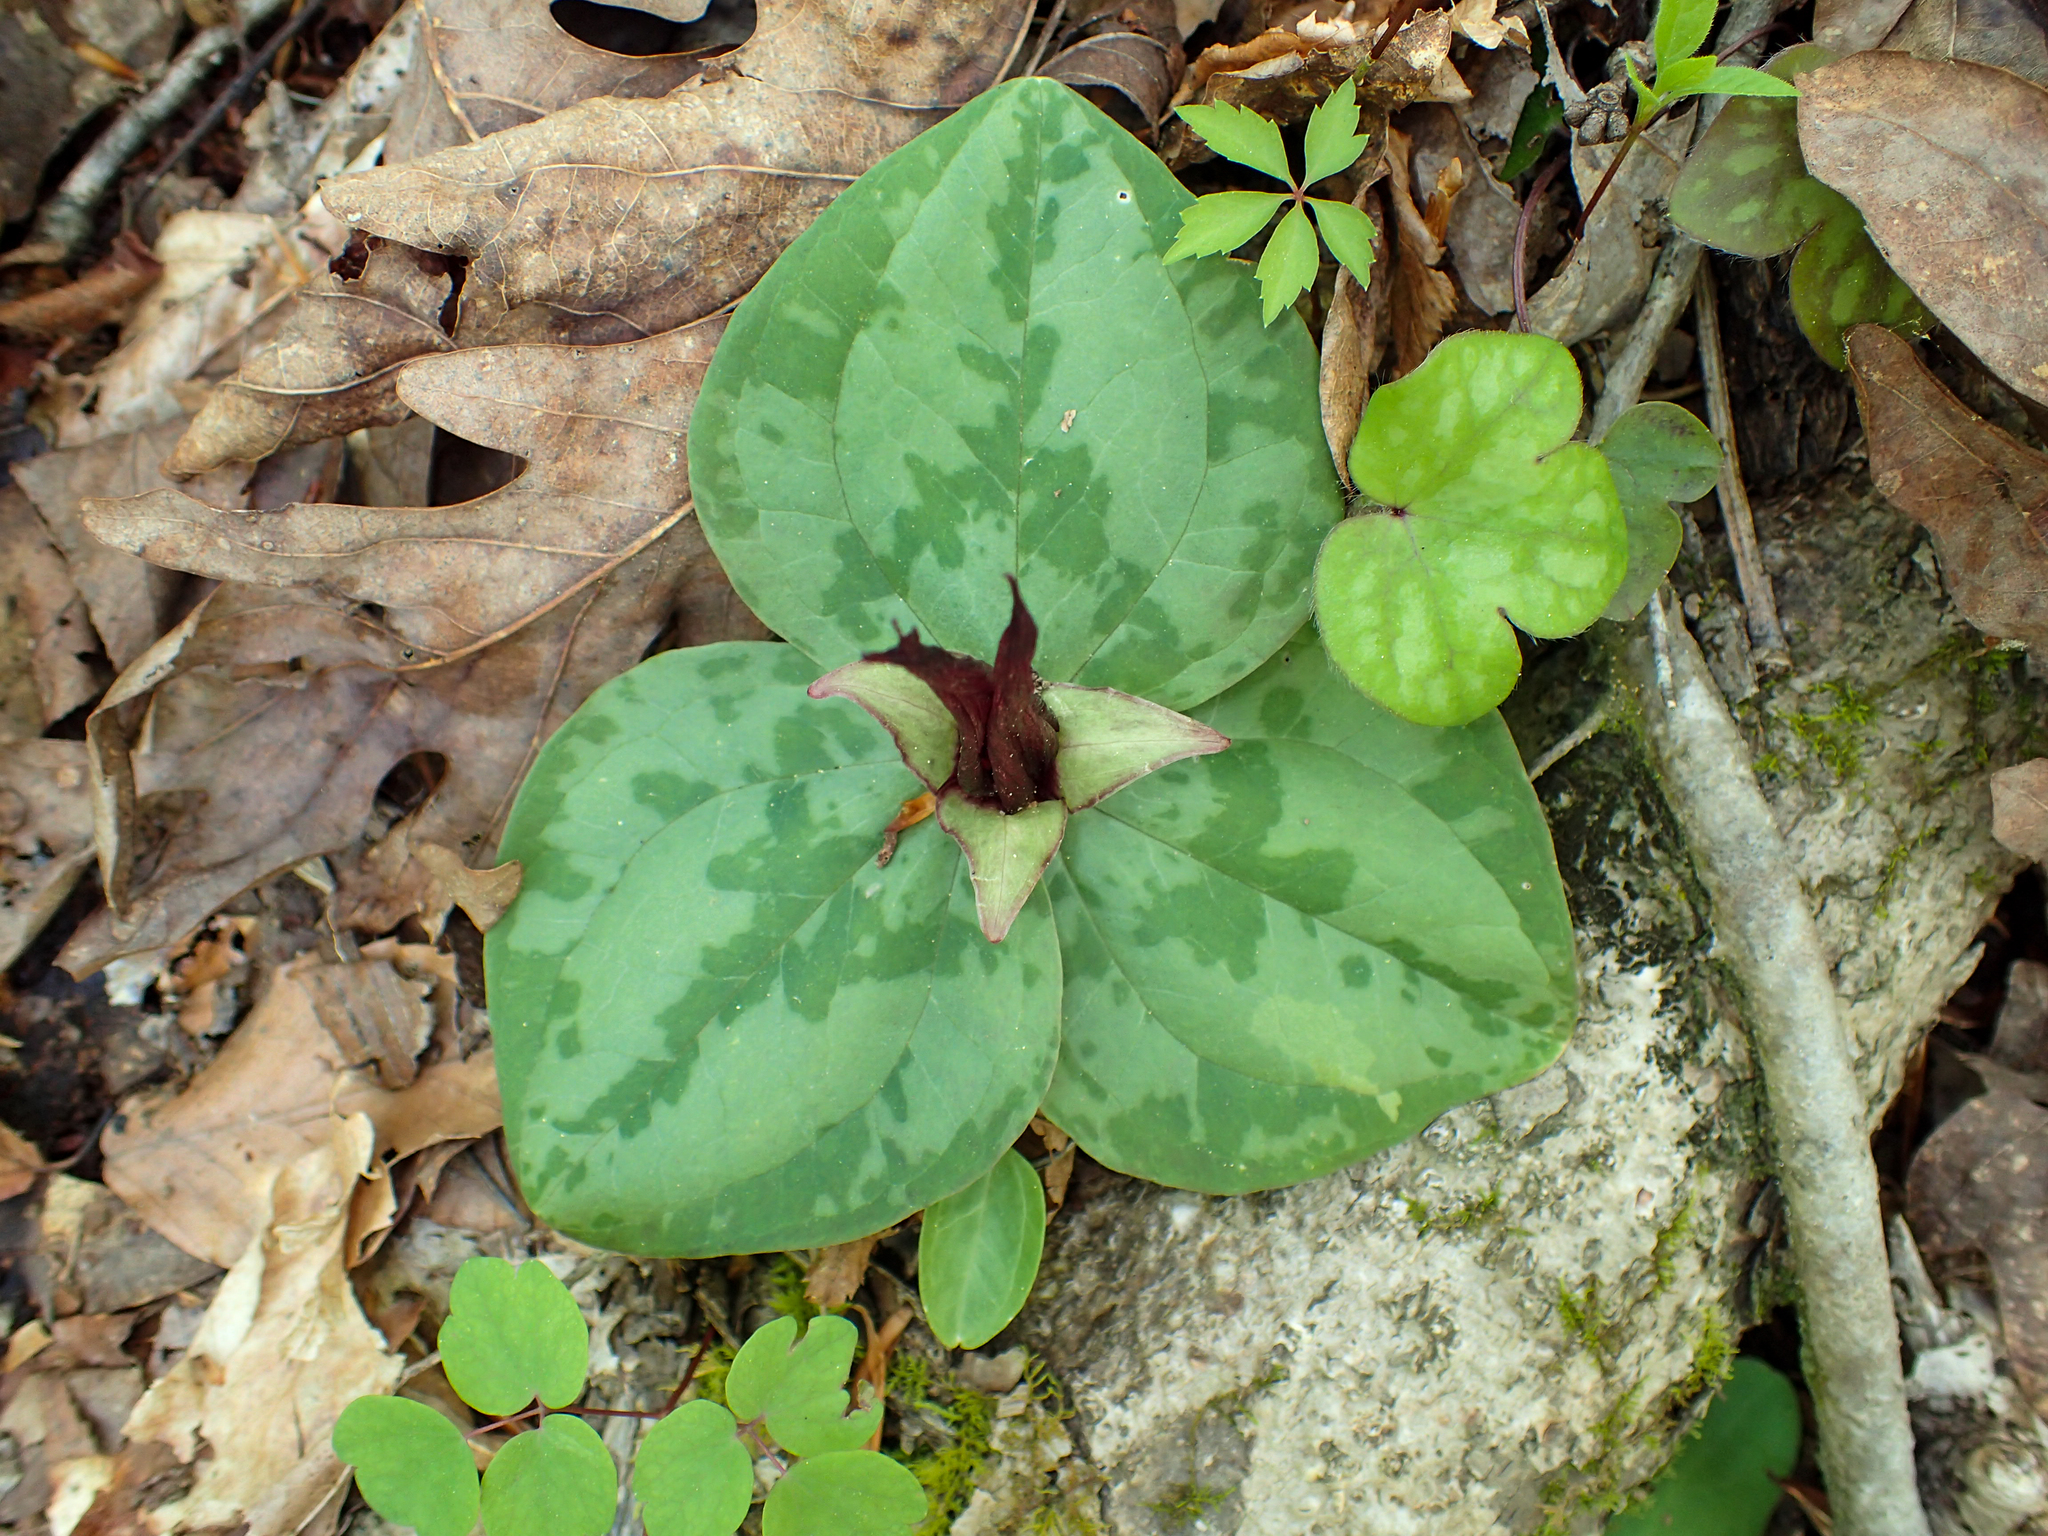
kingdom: Plantae
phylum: Tracheophyta
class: Liliopsida
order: Liliales
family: Melanthiaceae
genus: Trillium
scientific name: Trillium decumbens
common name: Decumbent trillium
